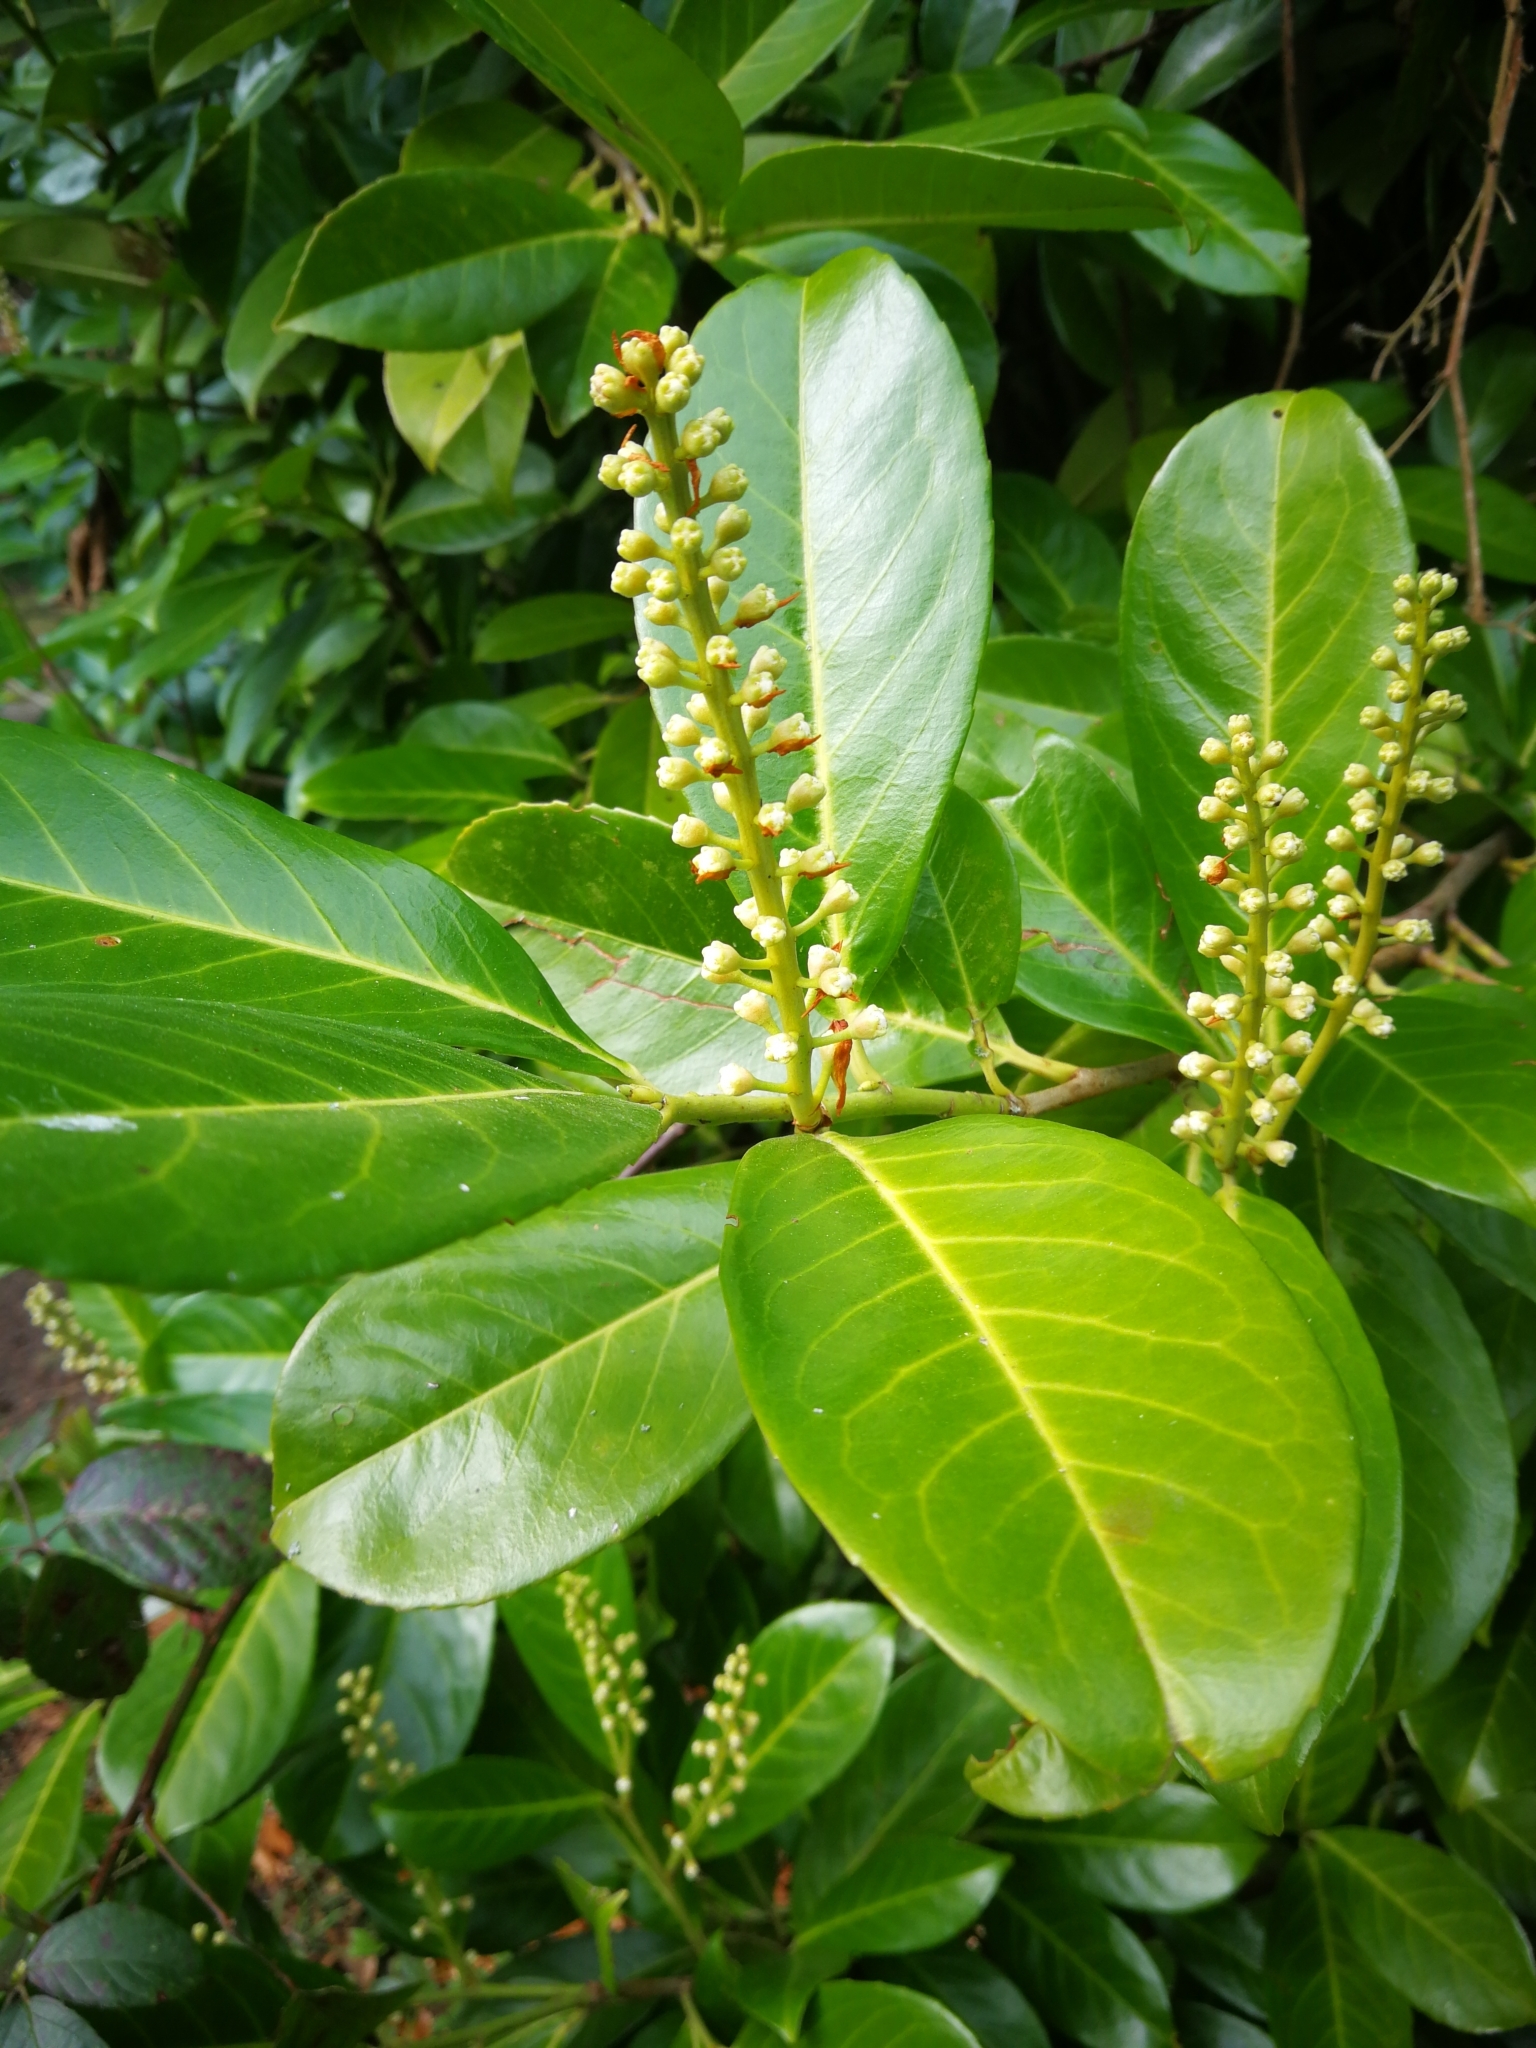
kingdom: Plantae
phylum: Tracheophyta
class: Magnoliopsida
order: Rosales
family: Rosaceae
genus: Prunus
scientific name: Prunus laurocerasus
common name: Cherry laurel
